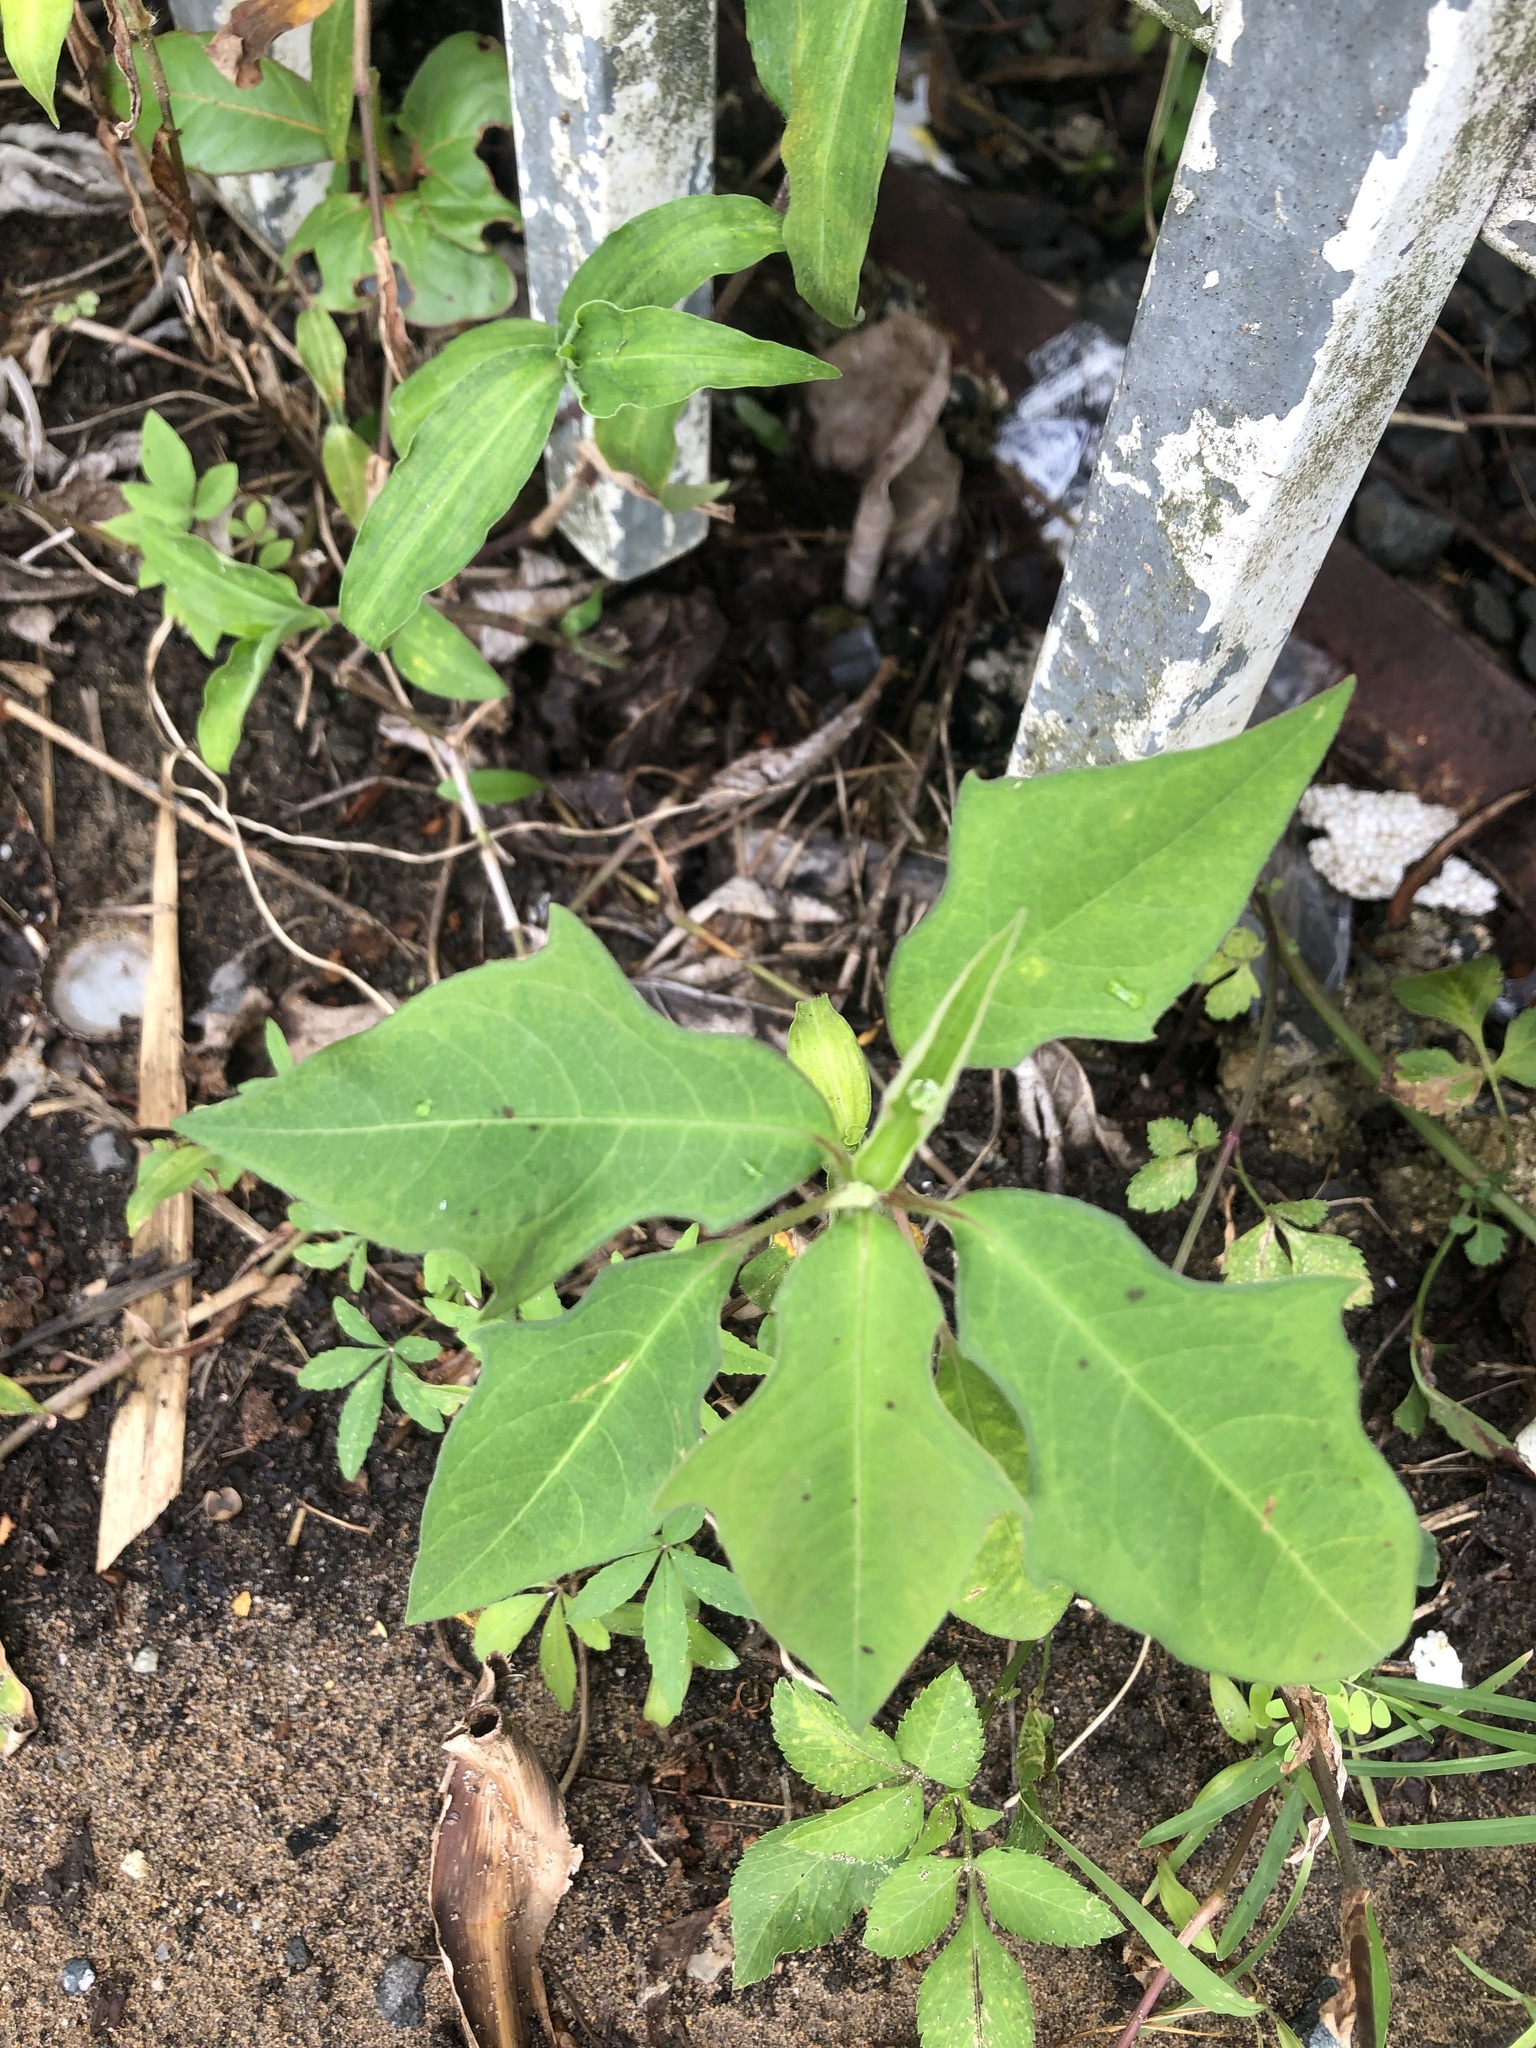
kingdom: Plantae
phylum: Tracheophyta
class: Magnoliopsida
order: Malpighiales
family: Euphorbiaceae
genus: Euphorbia
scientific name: Euphorbia heterophylla
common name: Mexican fireplant
